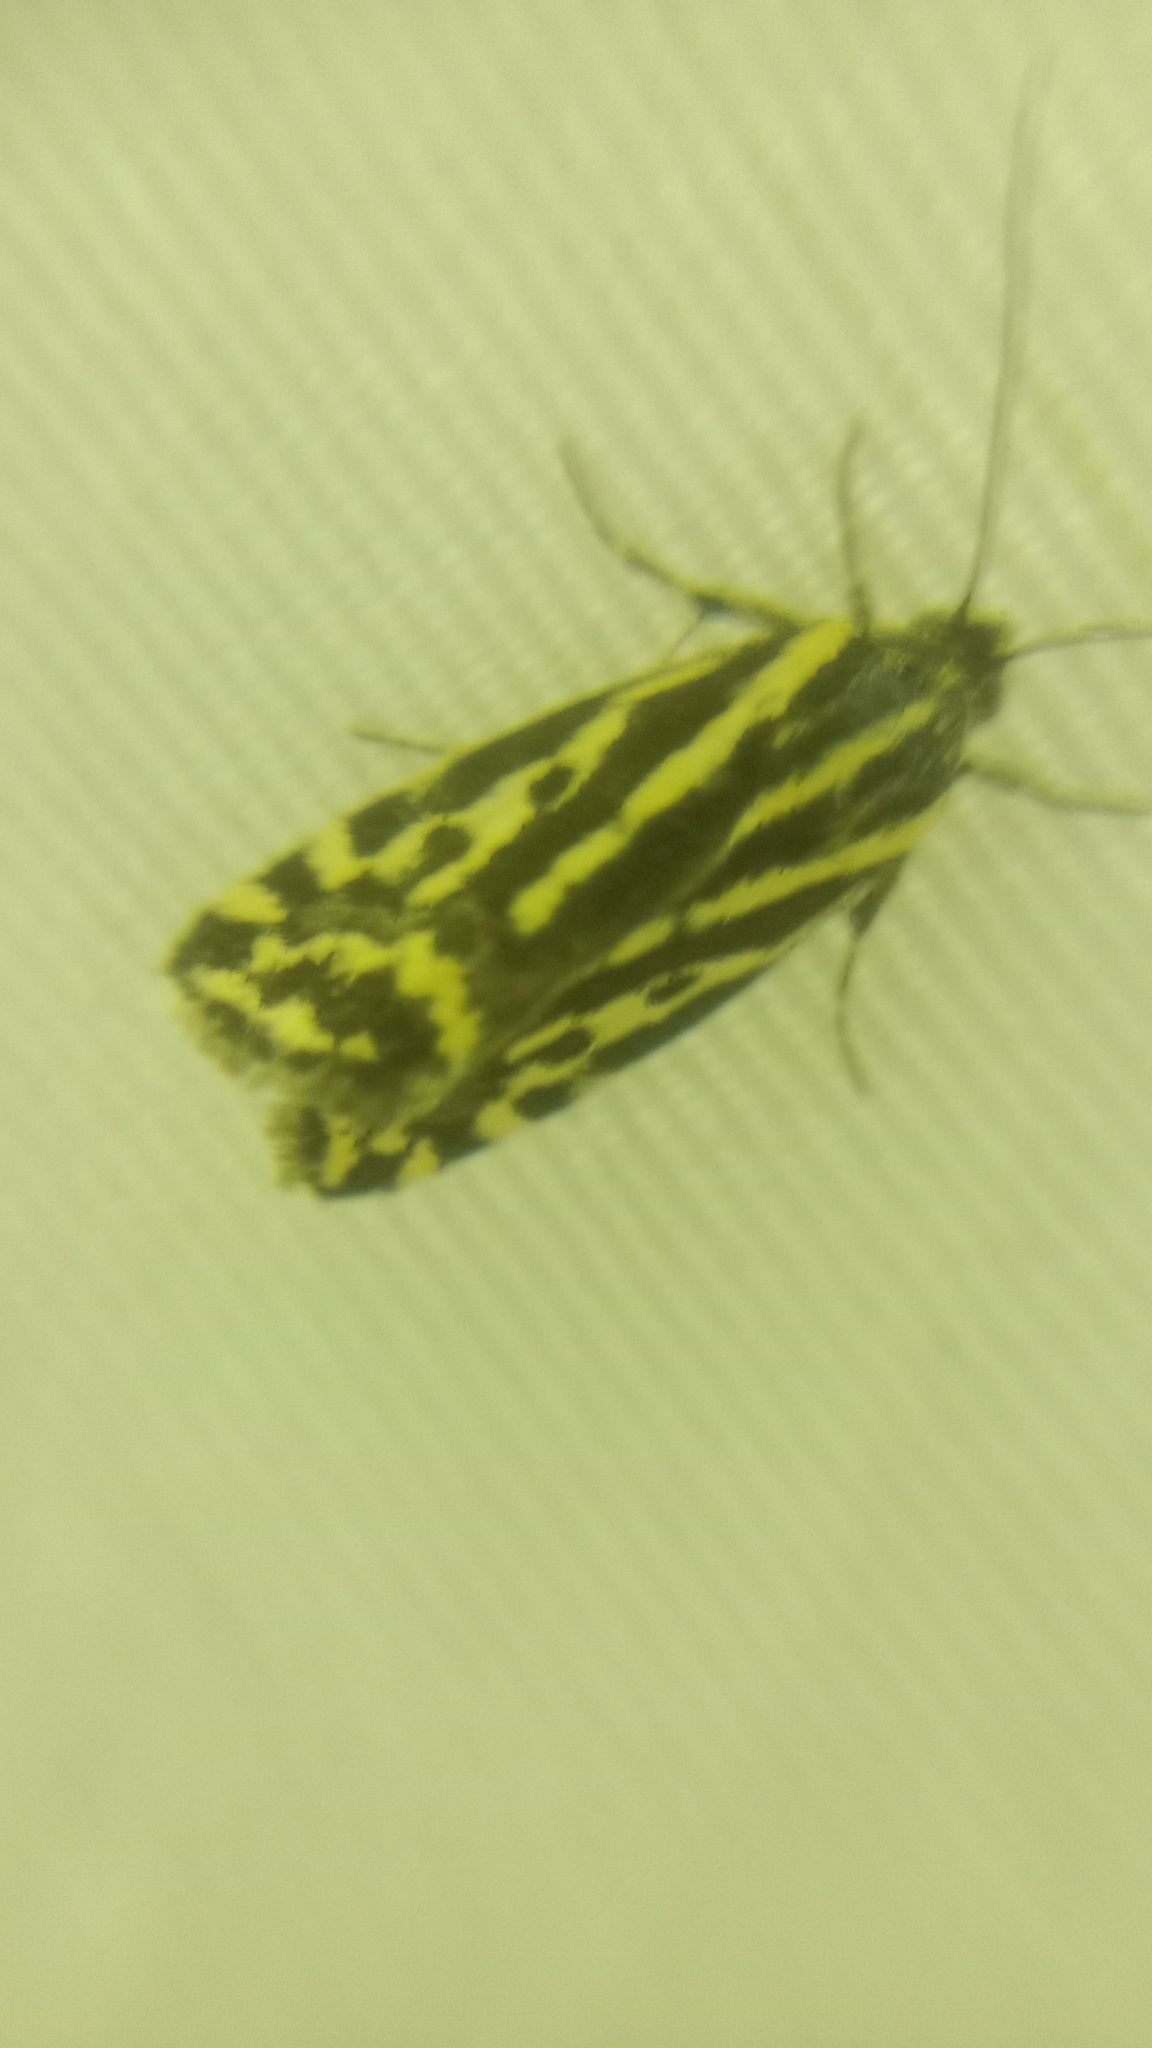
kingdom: Animalia
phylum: Arthropoda
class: Insecta
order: Lepidoptera
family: Noctuidae
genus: Acontia
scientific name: Acontia trabealis
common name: Spotted sulphur
